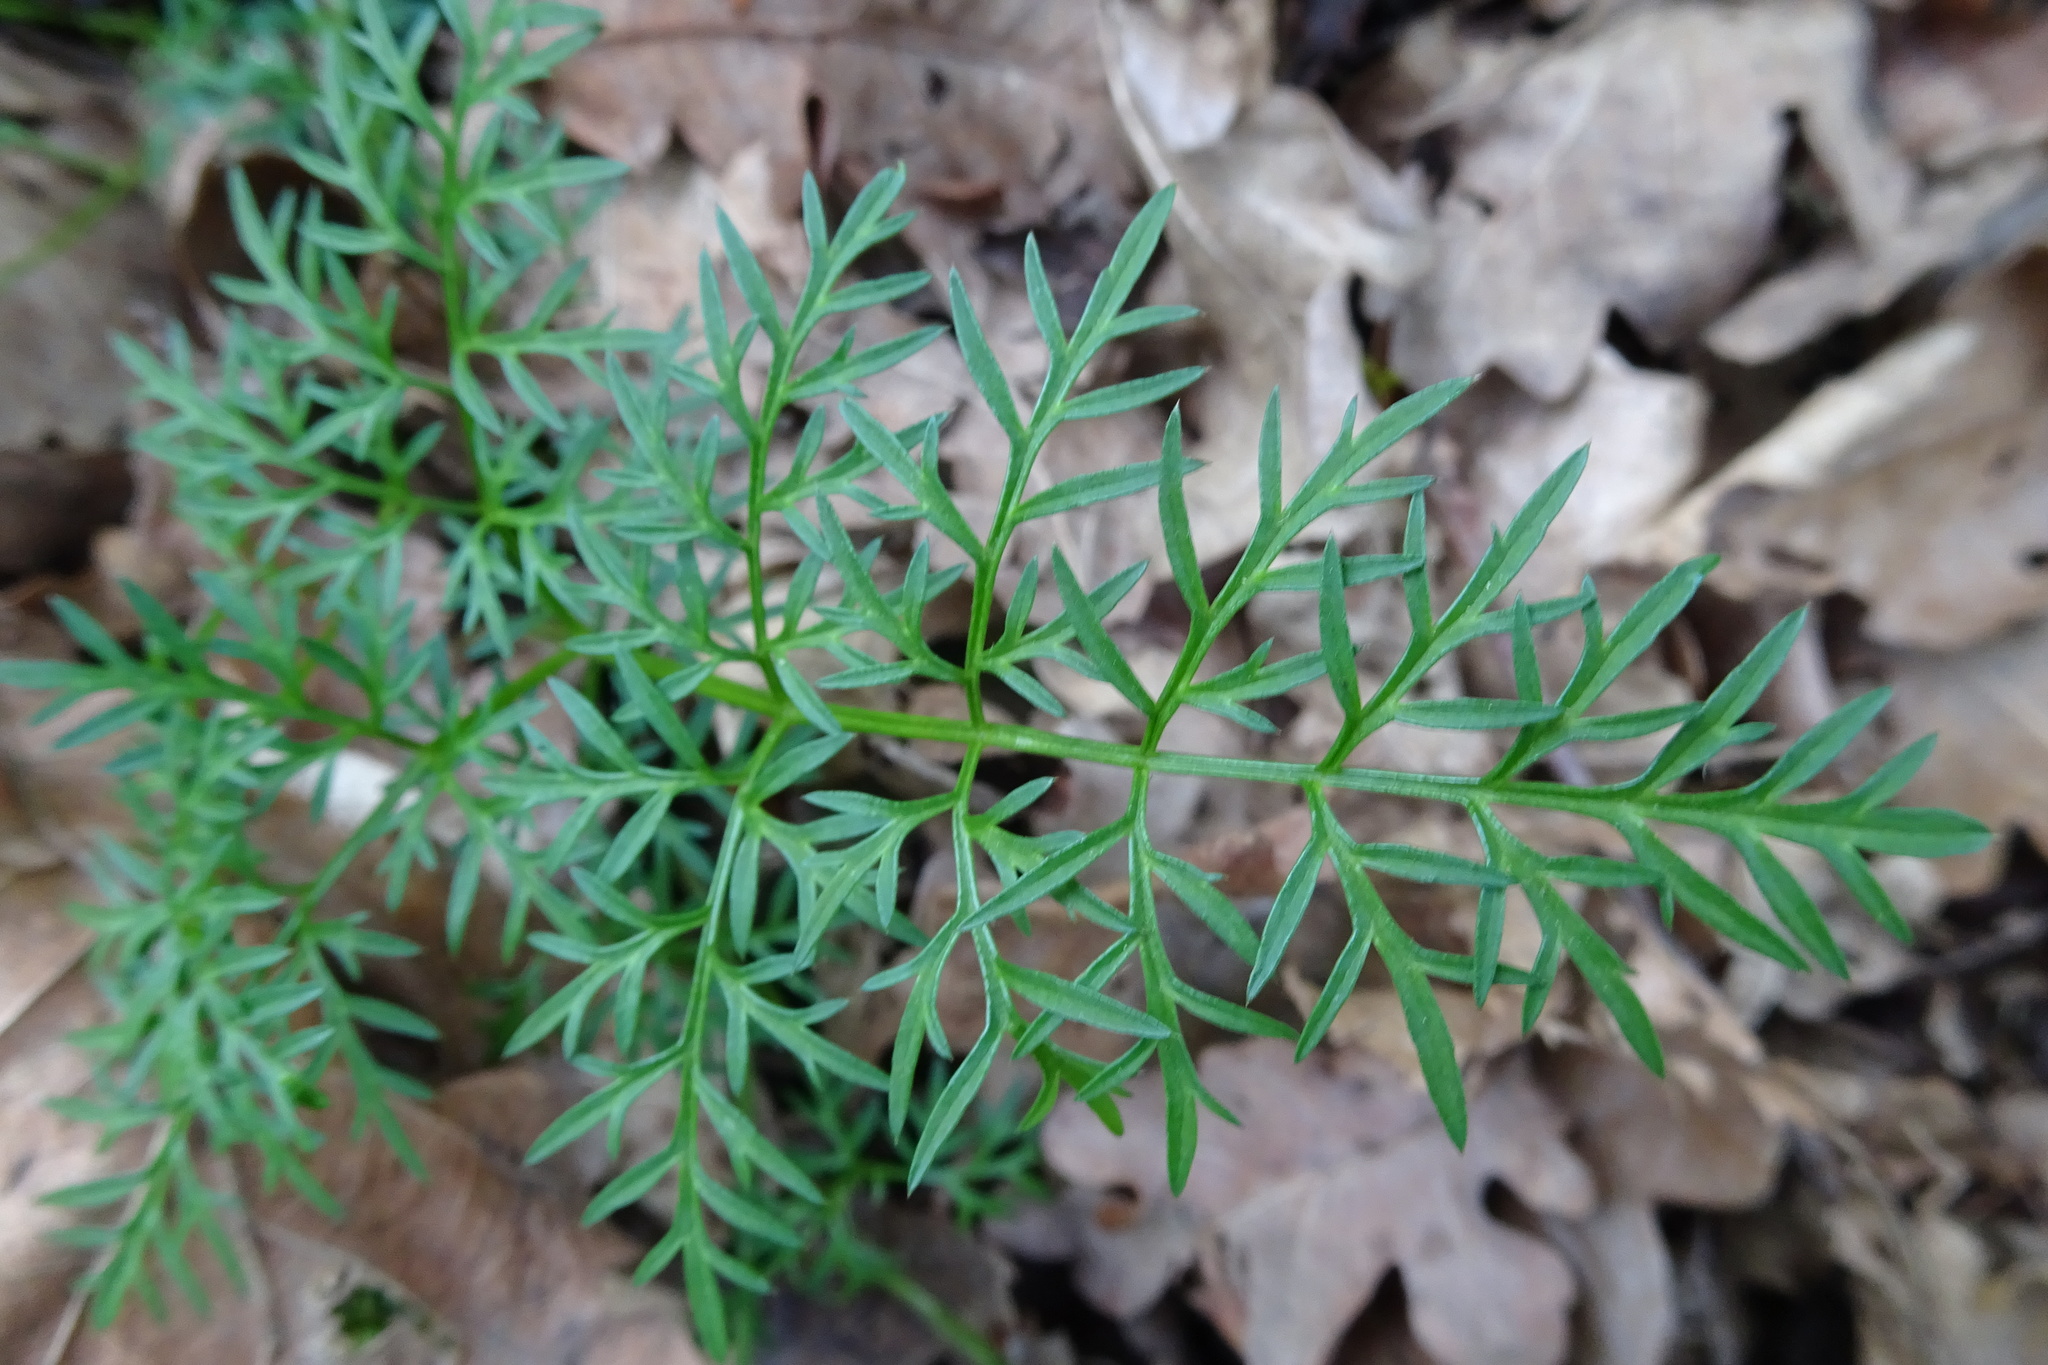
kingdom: Plantae
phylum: Tracheophyta
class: Magnoliopsida
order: Apiales
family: Apiaceae
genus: Conopodium
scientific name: Conopodium majus
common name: Pignut
